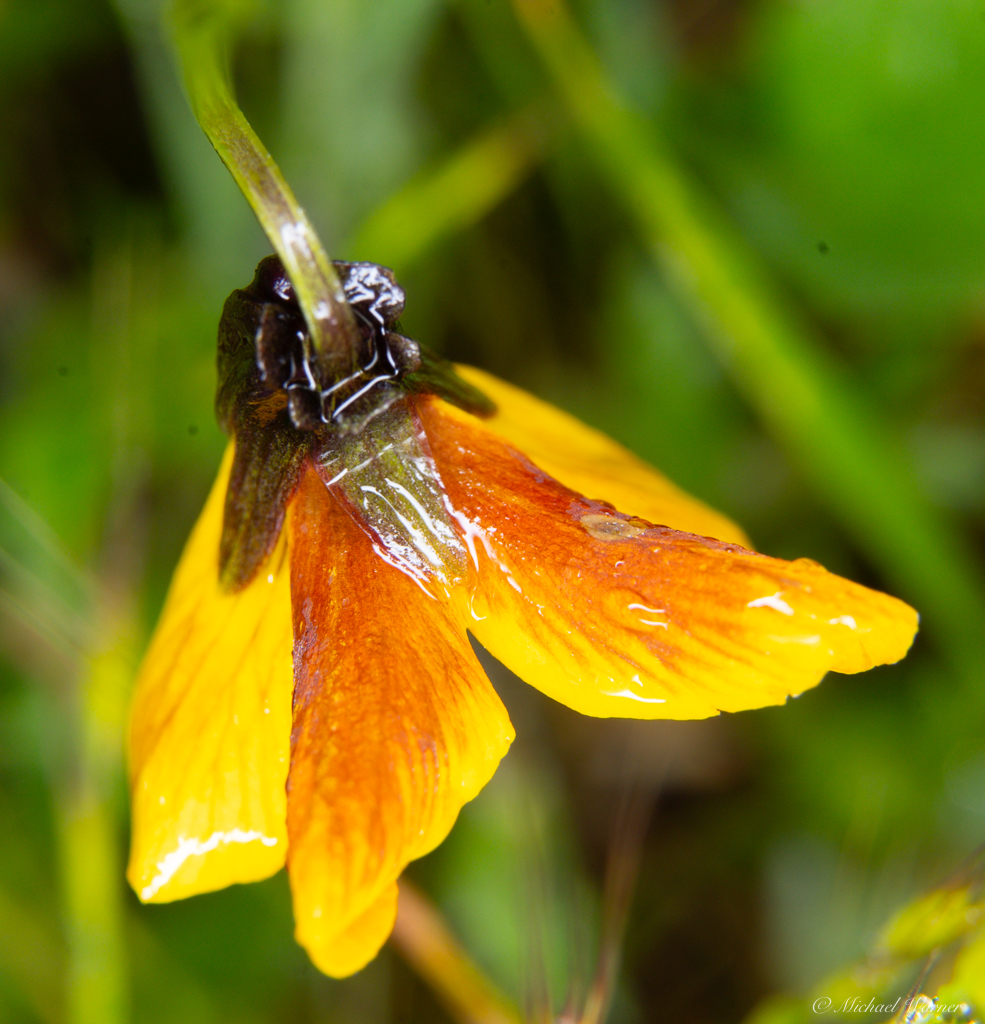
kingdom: Plantae
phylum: Tracheophyta
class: Magnoliopsida
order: Malpighiales
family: Violaceae
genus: Viola
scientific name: Viola pedunculata
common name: California golden violet
